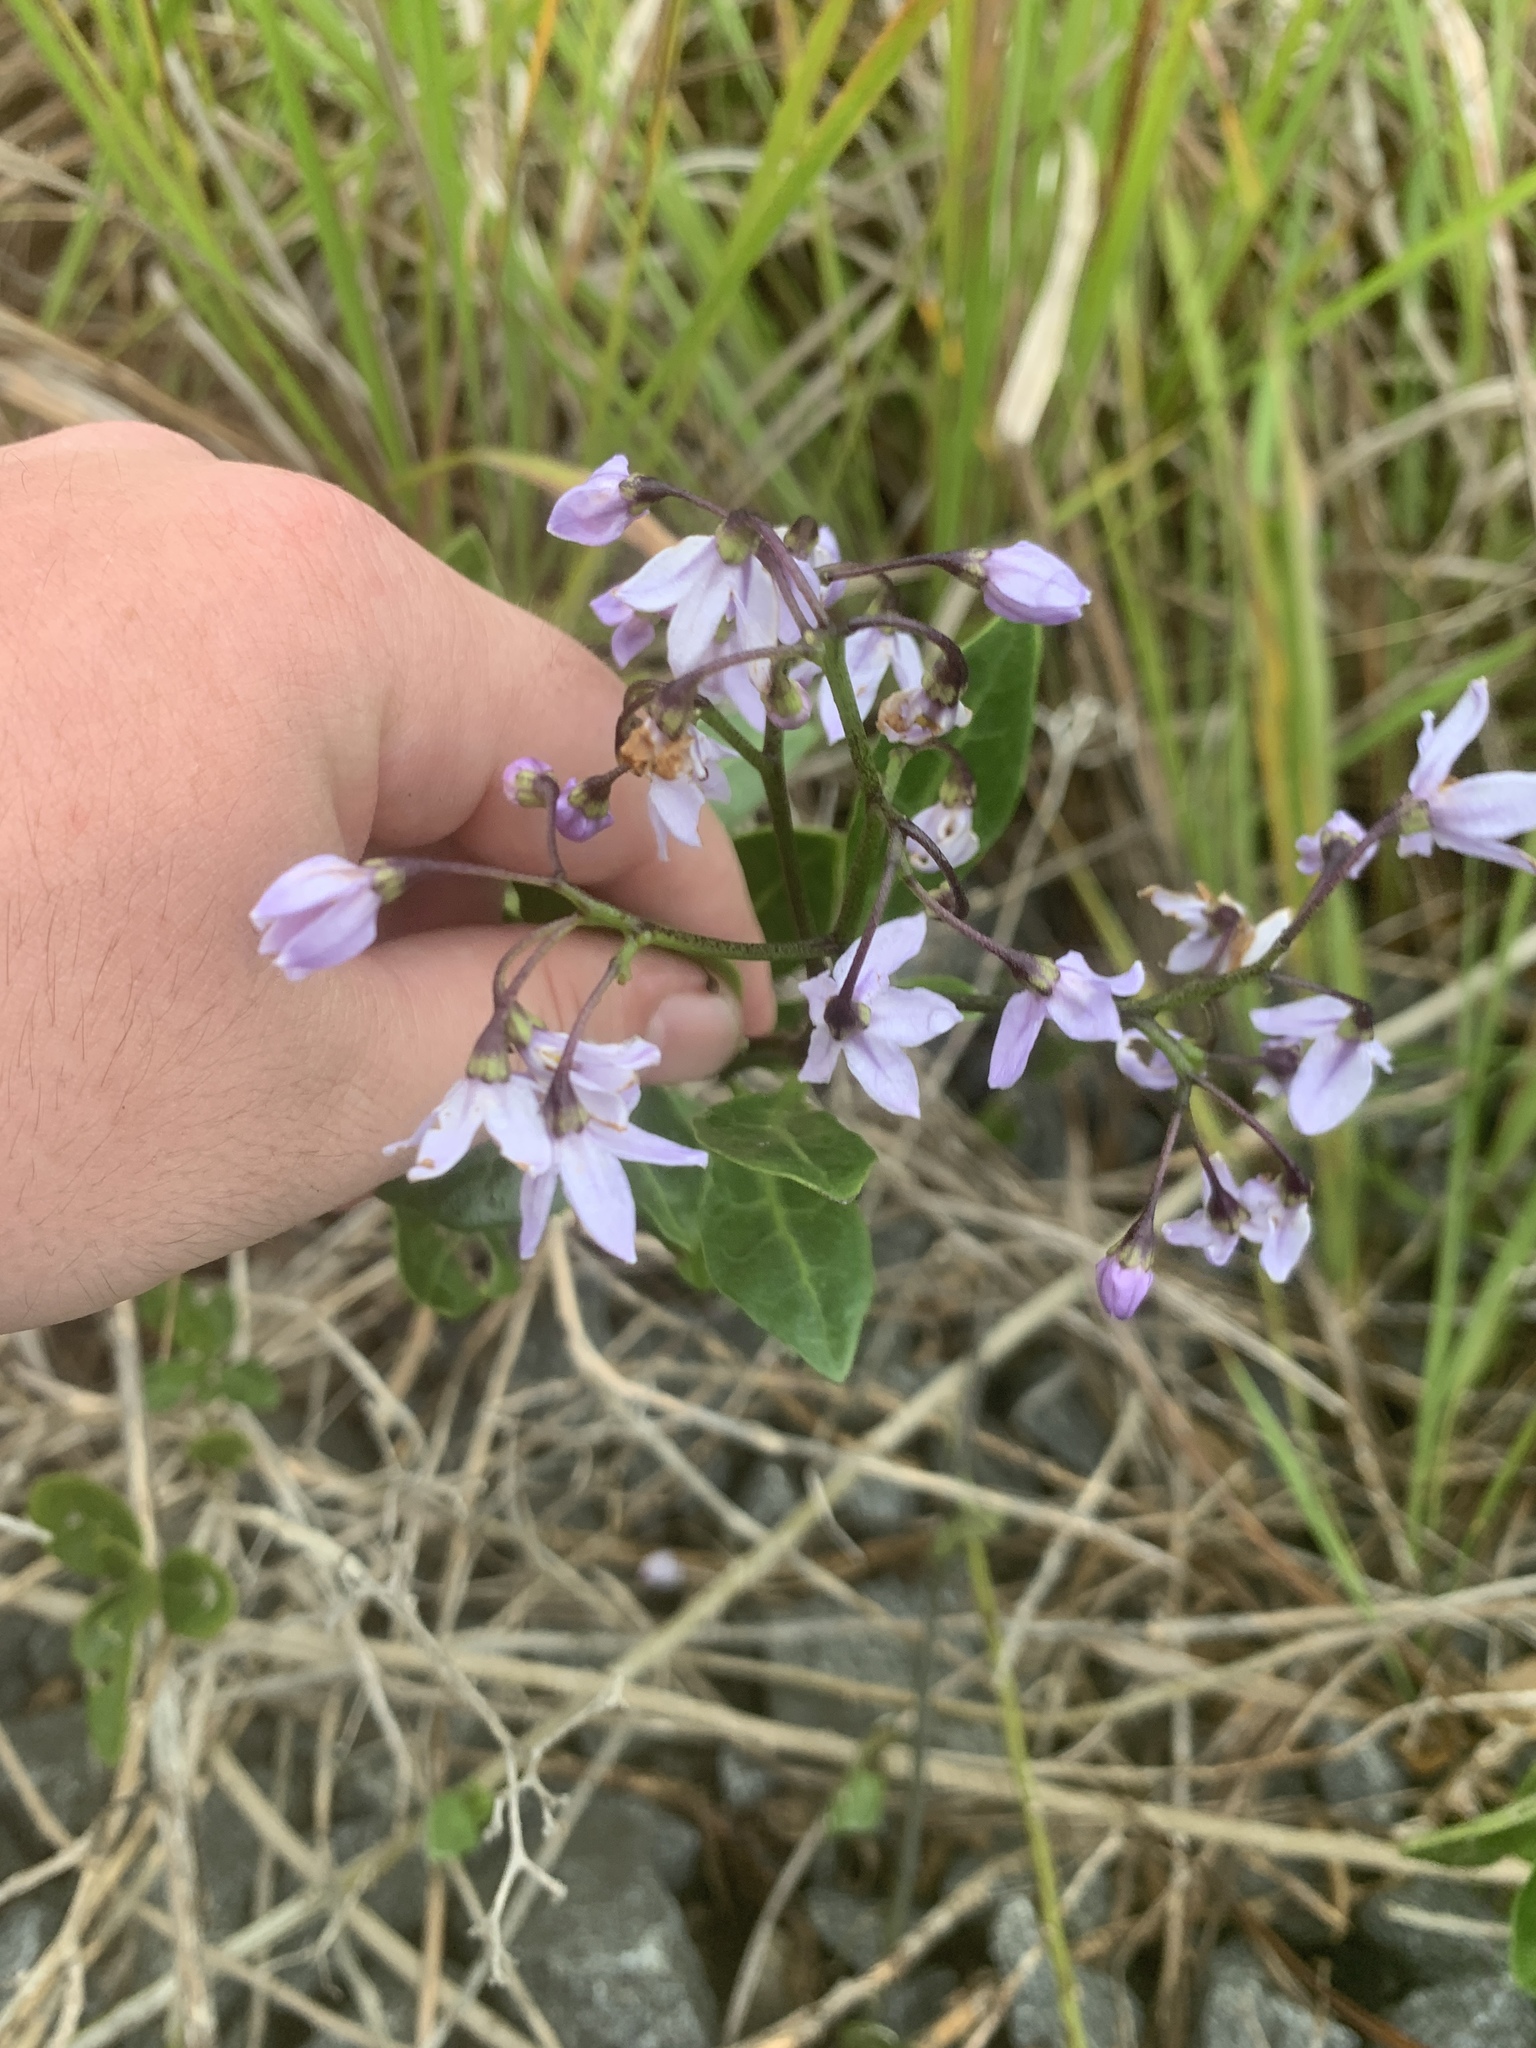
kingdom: Plantae
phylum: Tracheophyta
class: Magnoliopsida
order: Solanales
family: Solanaceae
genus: Solanum
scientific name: Solanum africanum
